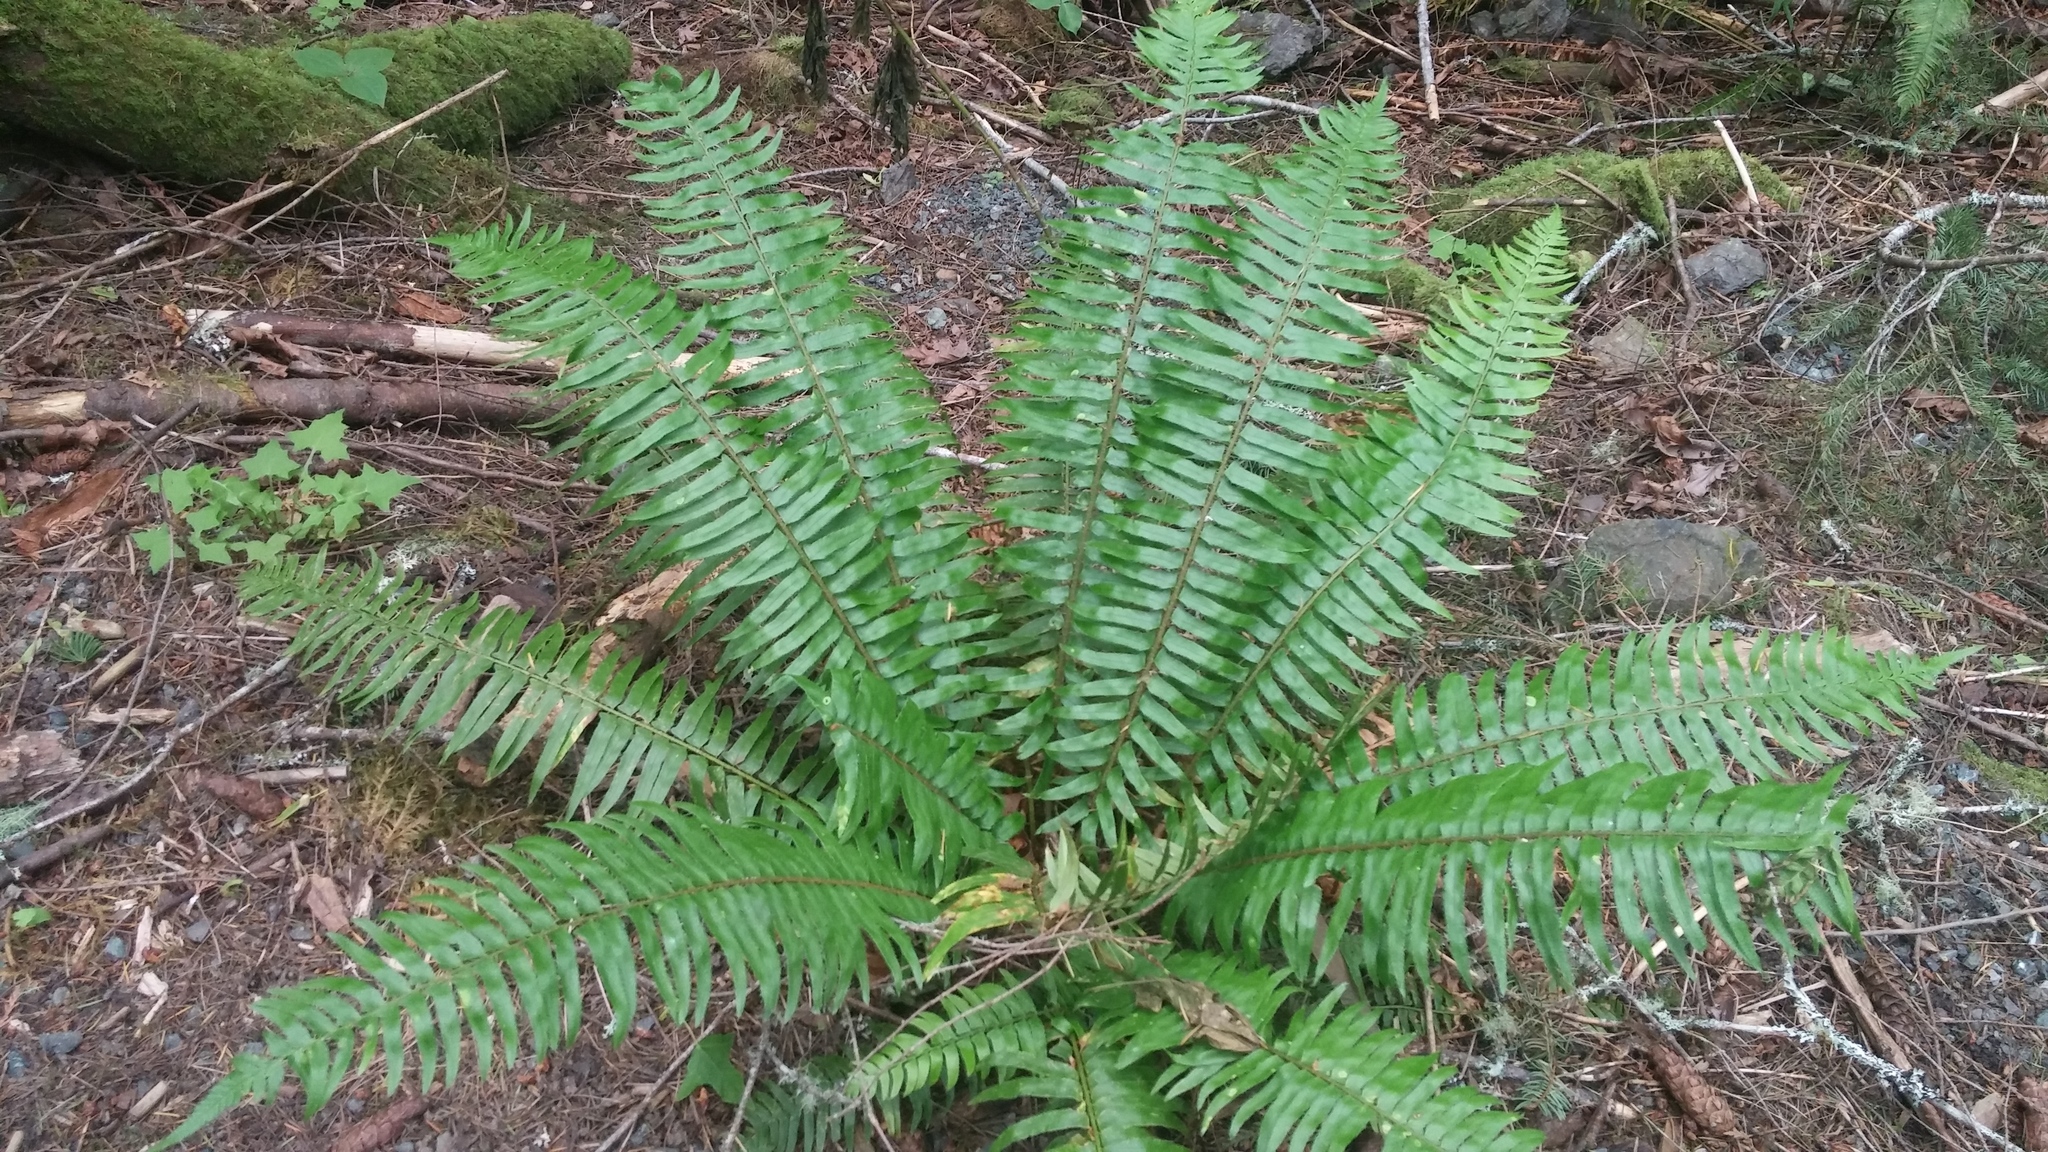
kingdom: Plantae
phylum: Tracheophyta
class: Polypodiopsida
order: Polypodiales
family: Dryopteridaceae
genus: Polystichum
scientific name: Polystichum munitum
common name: Western sword-fern
